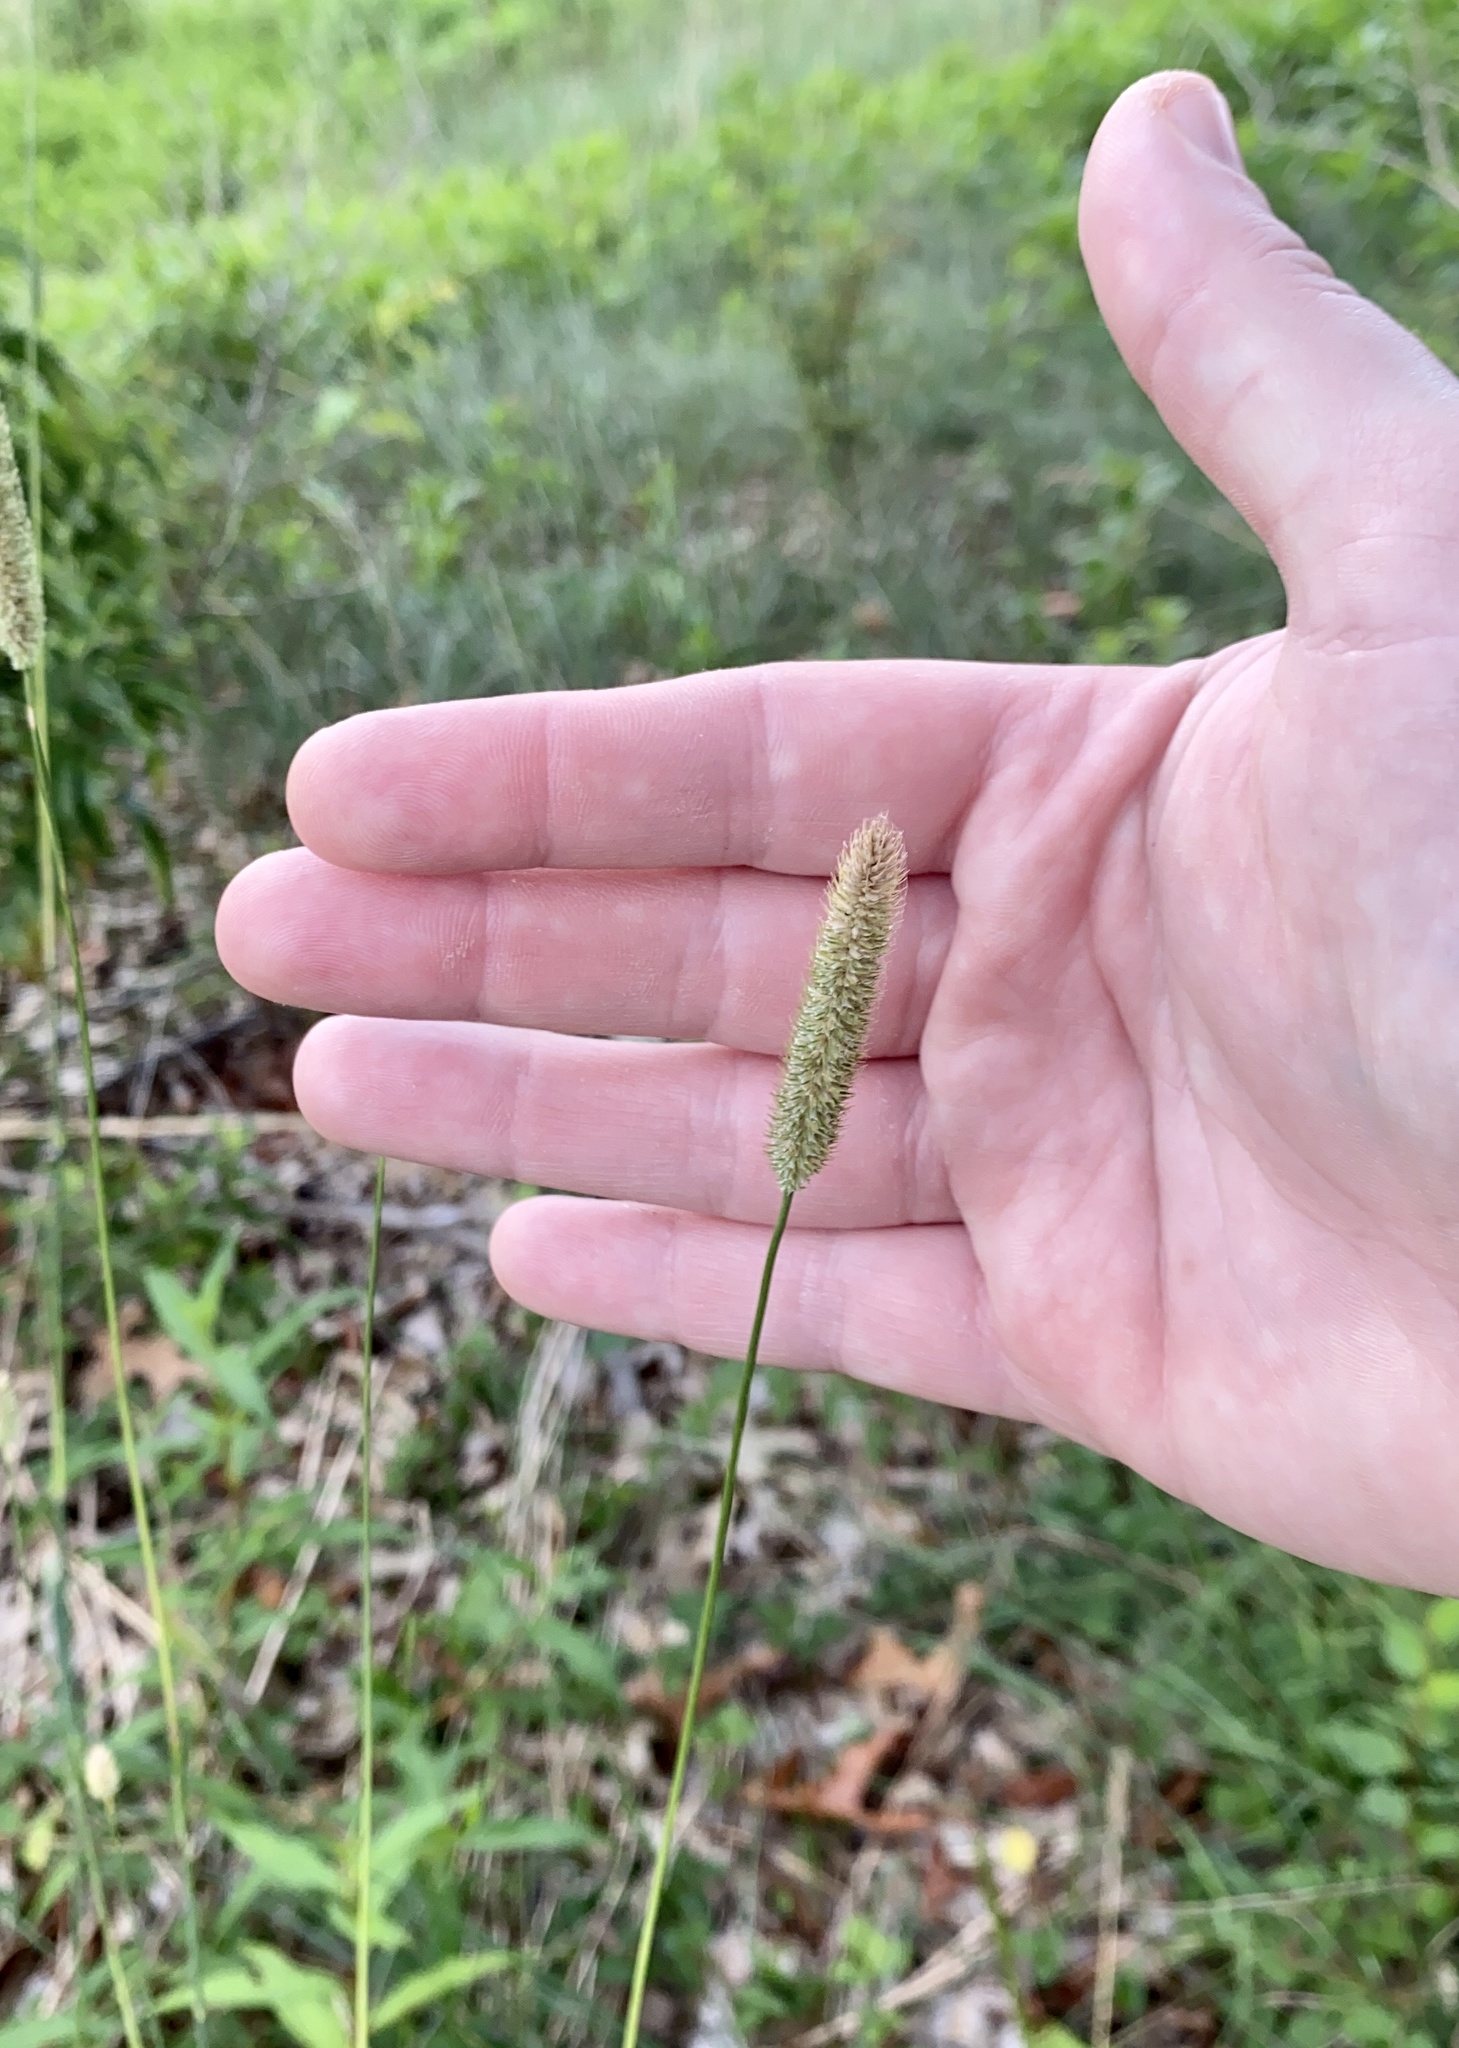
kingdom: Plantae
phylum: Tracheophyta
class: Liliopsida
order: Poales
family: Poaceae
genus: Phleum
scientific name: Phleum pratense
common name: Timothy grass
